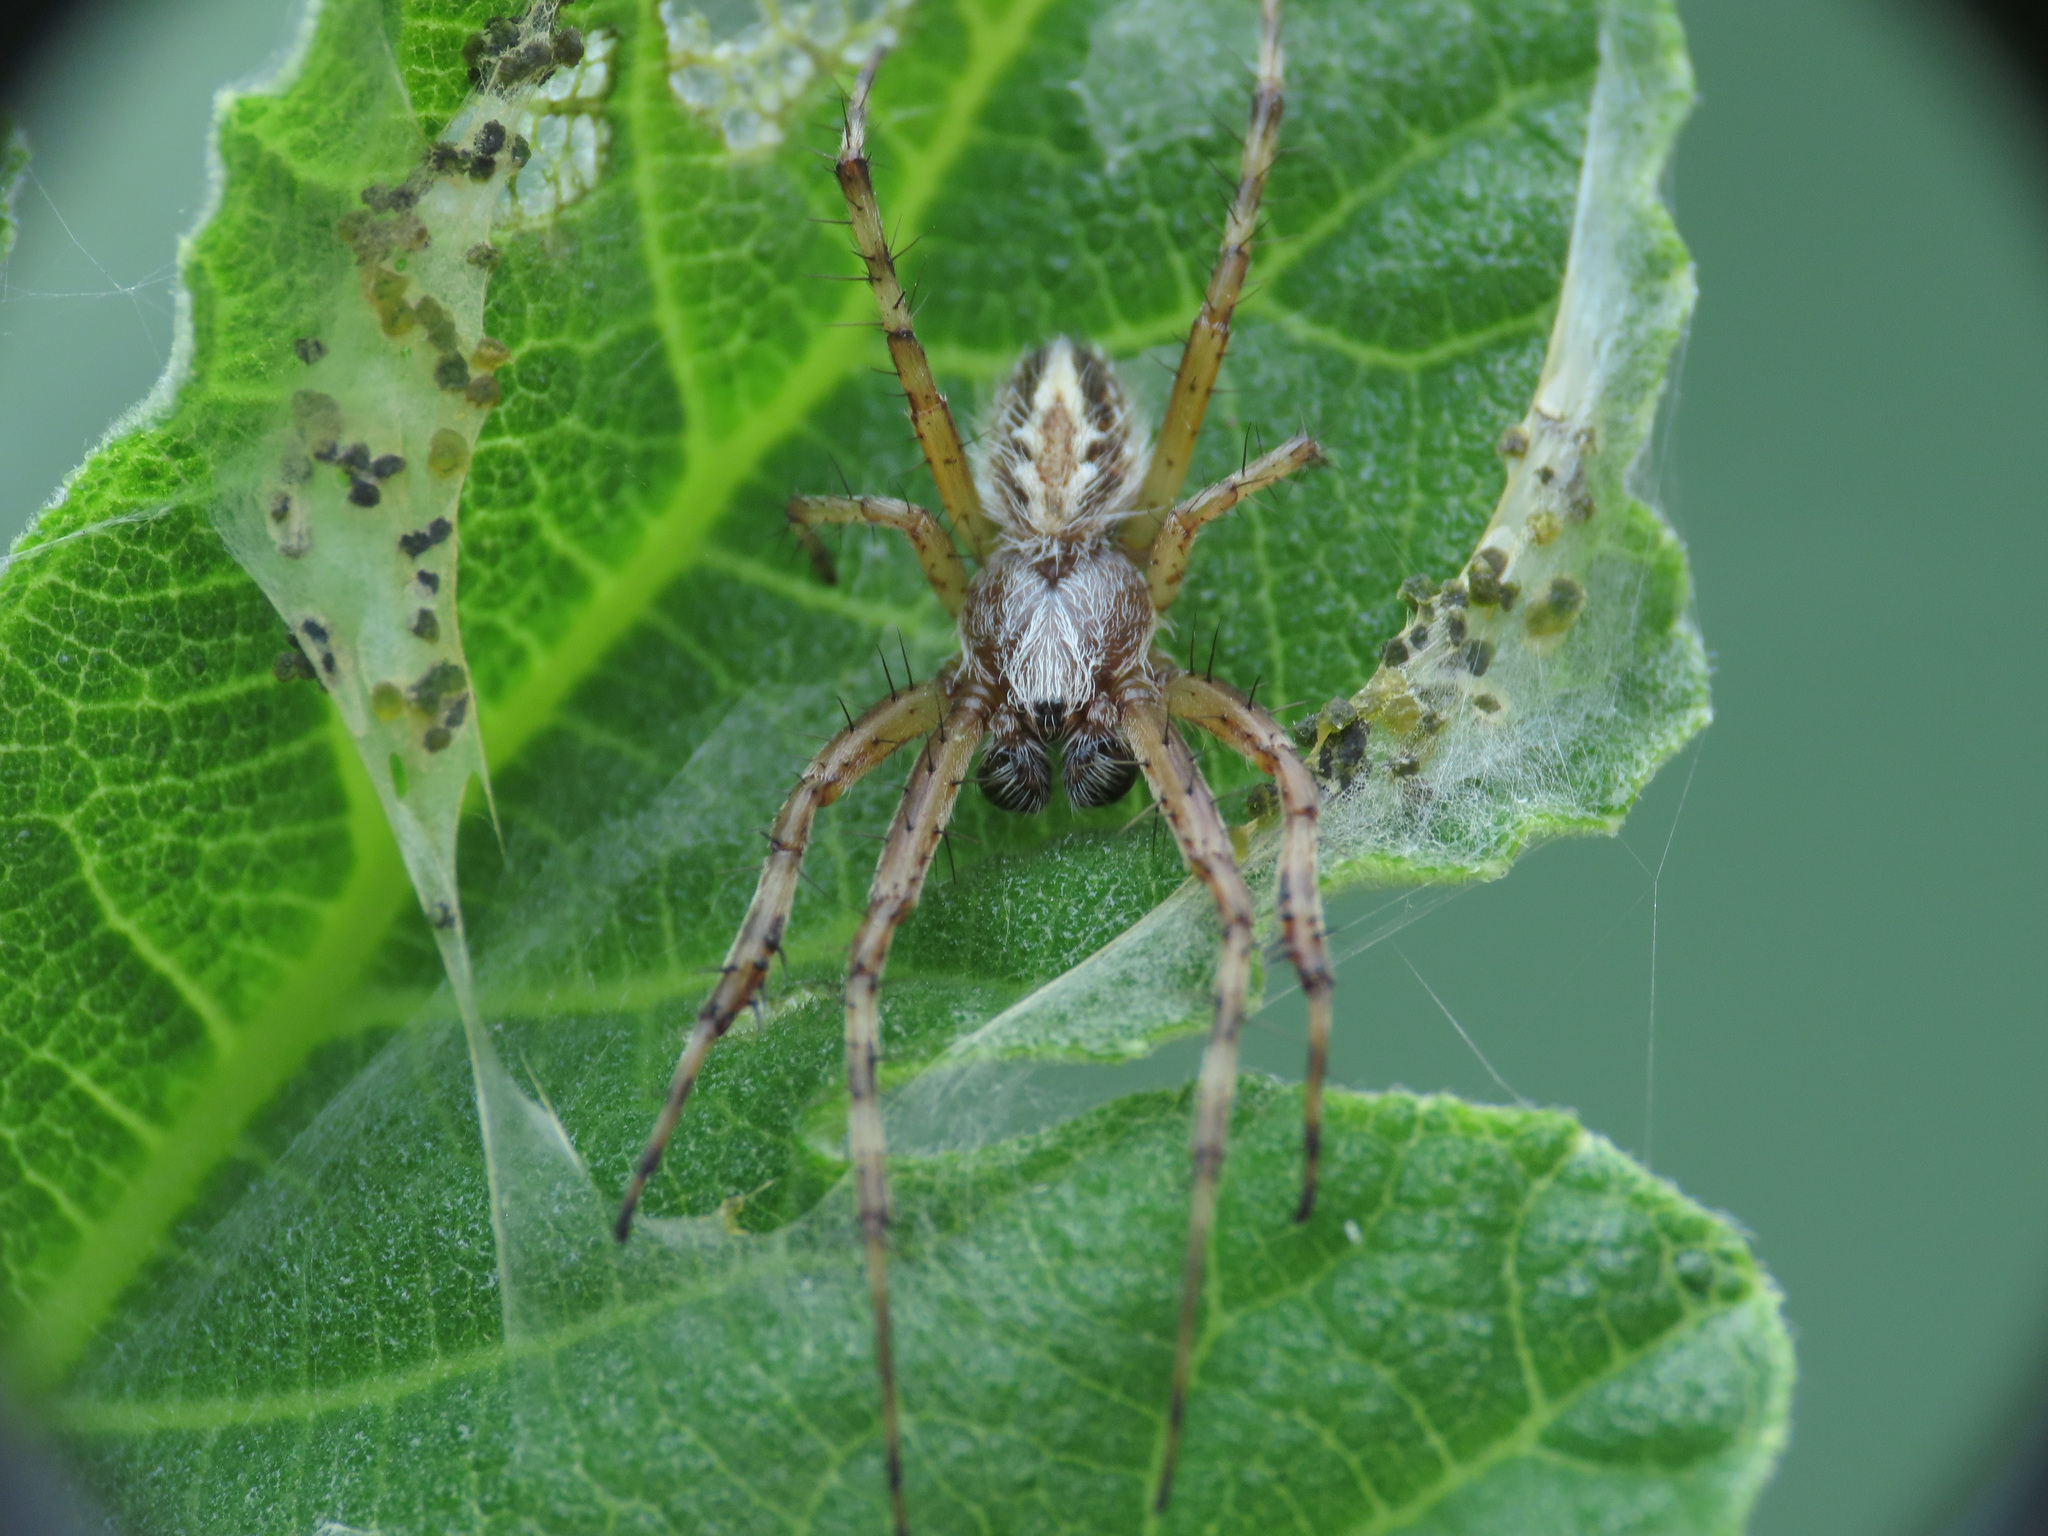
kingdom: Animalia
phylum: Arthropoda
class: Arachnida
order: Araneae
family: Araneidae
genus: Aculepeira
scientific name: Aculepeira armida
